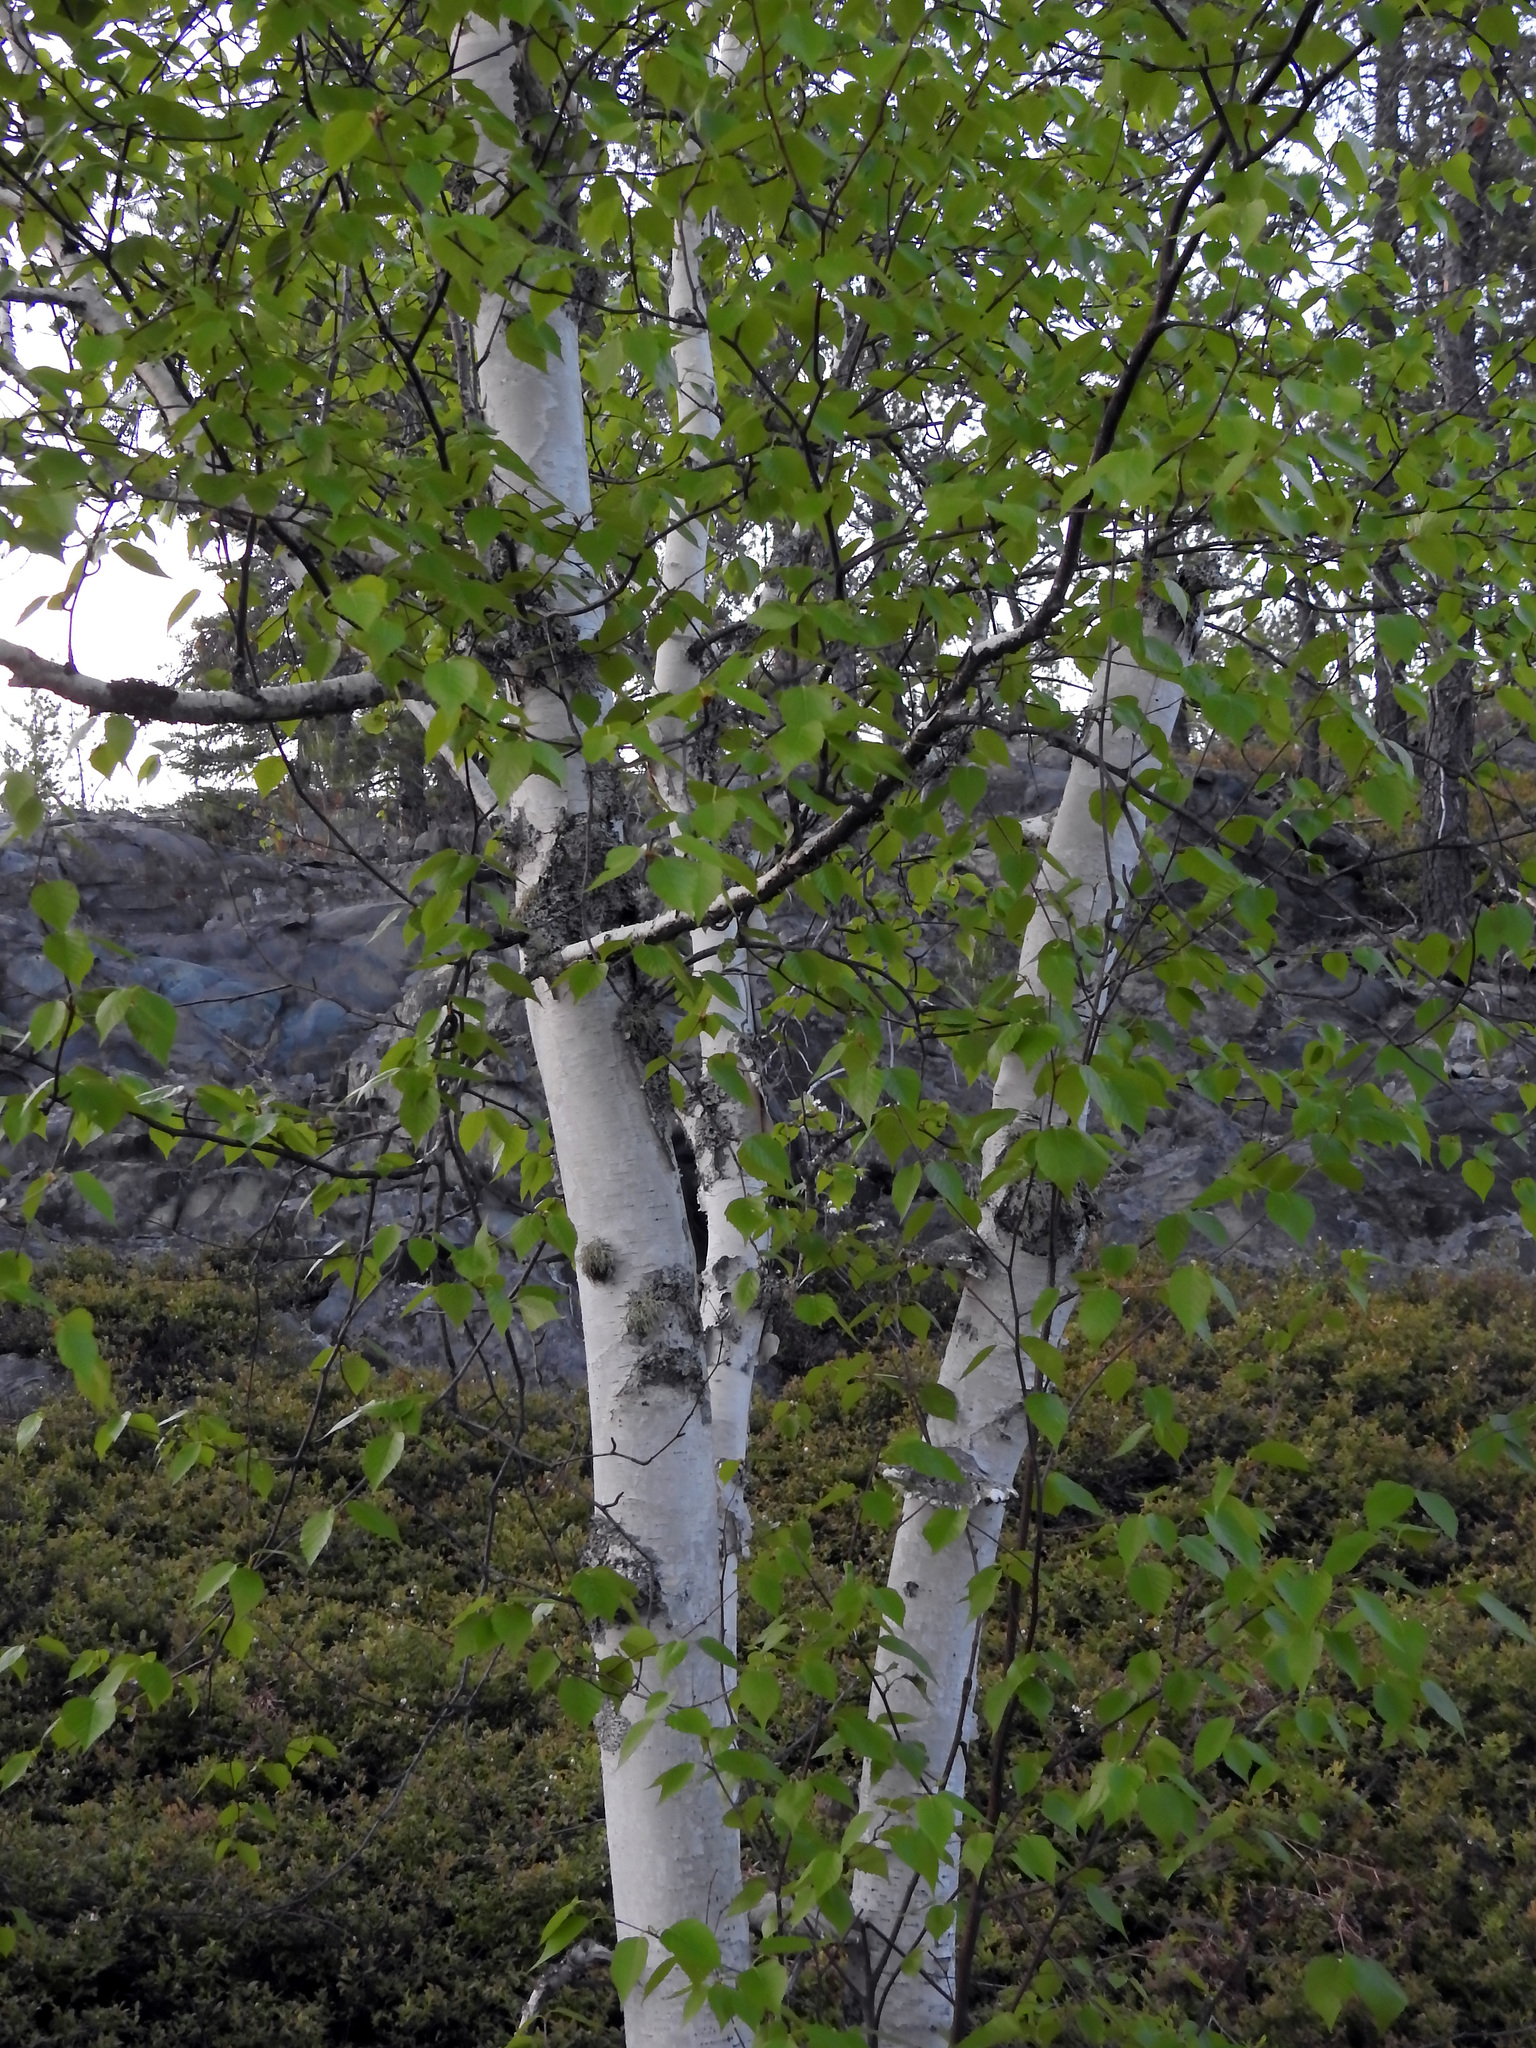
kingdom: Plantae
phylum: Tracheophyta
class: Magnoliopsida
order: Fagales
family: Betulaceae
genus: Betula
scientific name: Betula papyrifera
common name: Paper birch
